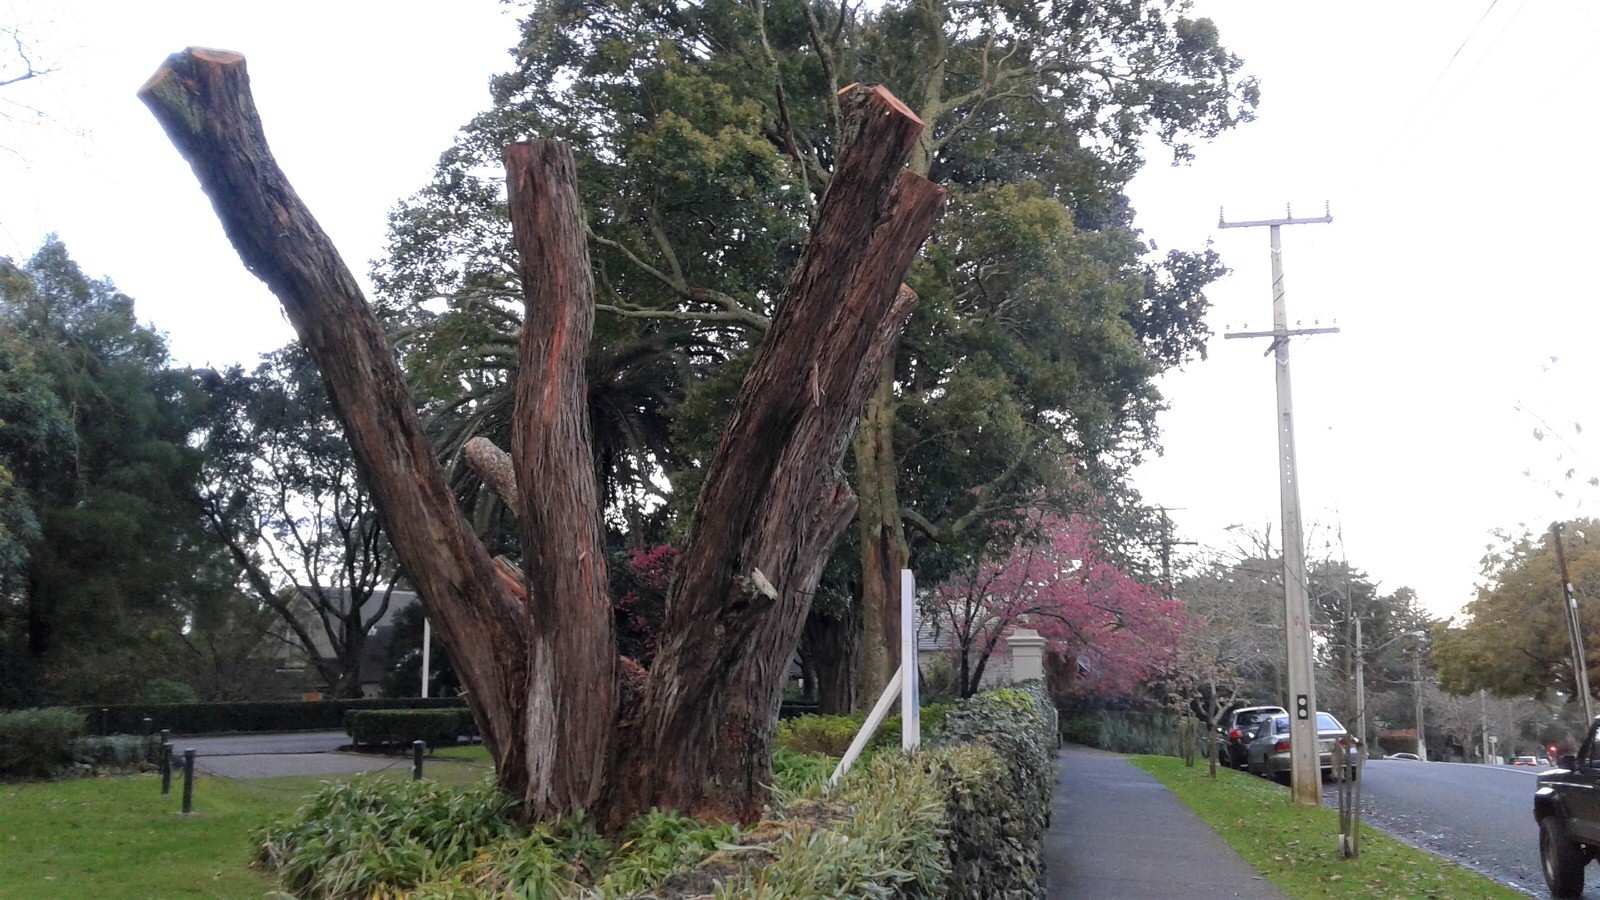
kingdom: Plantae
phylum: Tracheophyta
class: Magnoliopsida
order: Myrtales
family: Myrtaceae
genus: Metrosideros
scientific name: Metrosideros excelsa
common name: New zealand christmastree
